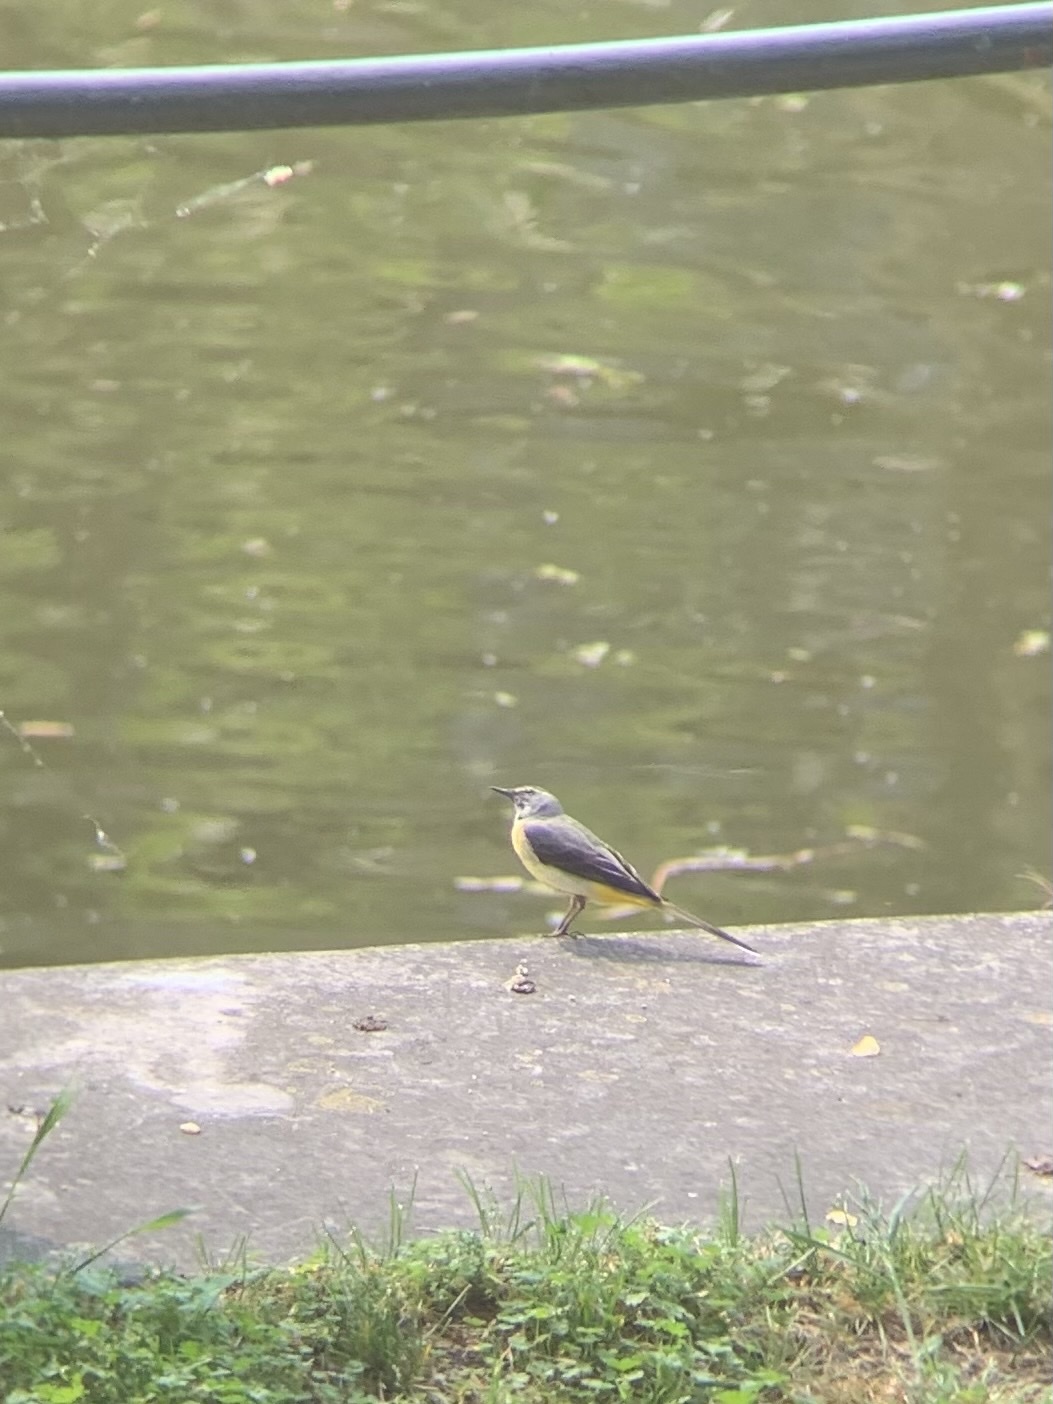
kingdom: Animalia
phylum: Chordata
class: Aves
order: Passeriformes
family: Motacillidae
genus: Motacilla
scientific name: Motacilla cinerea
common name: Grey wagtail
